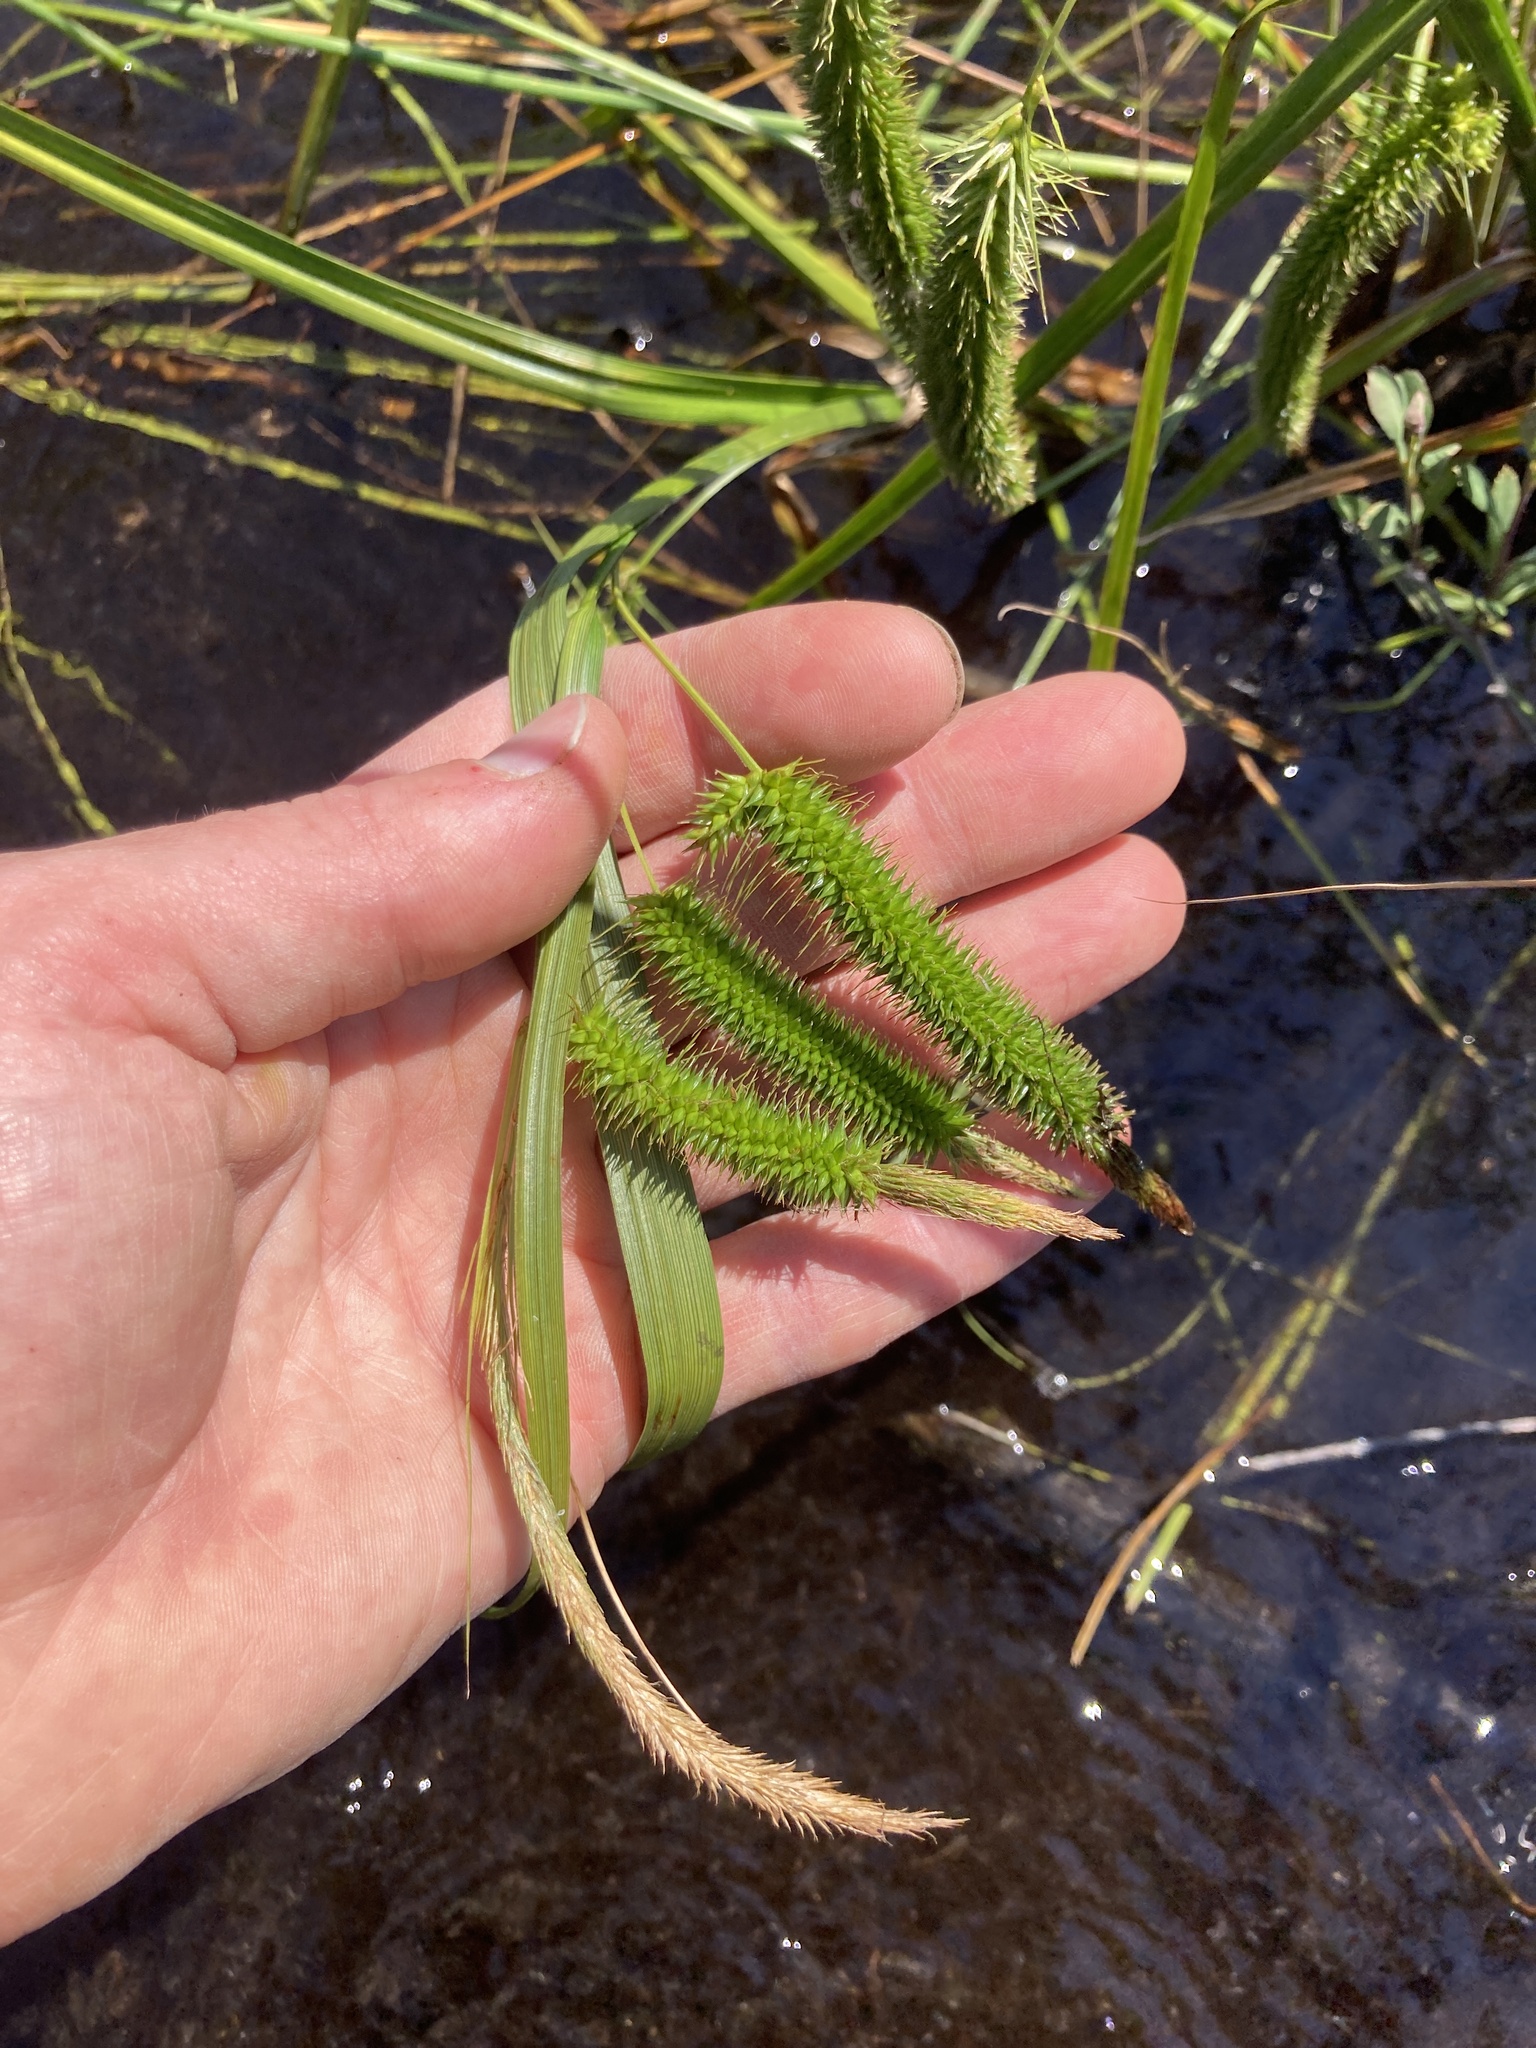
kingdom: Plantae
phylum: Tracheophyta
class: Liliopsida
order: Poales
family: Cyperaceae
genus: Carex
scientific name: Carex pseudocyperus
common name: Cyperus sedge
